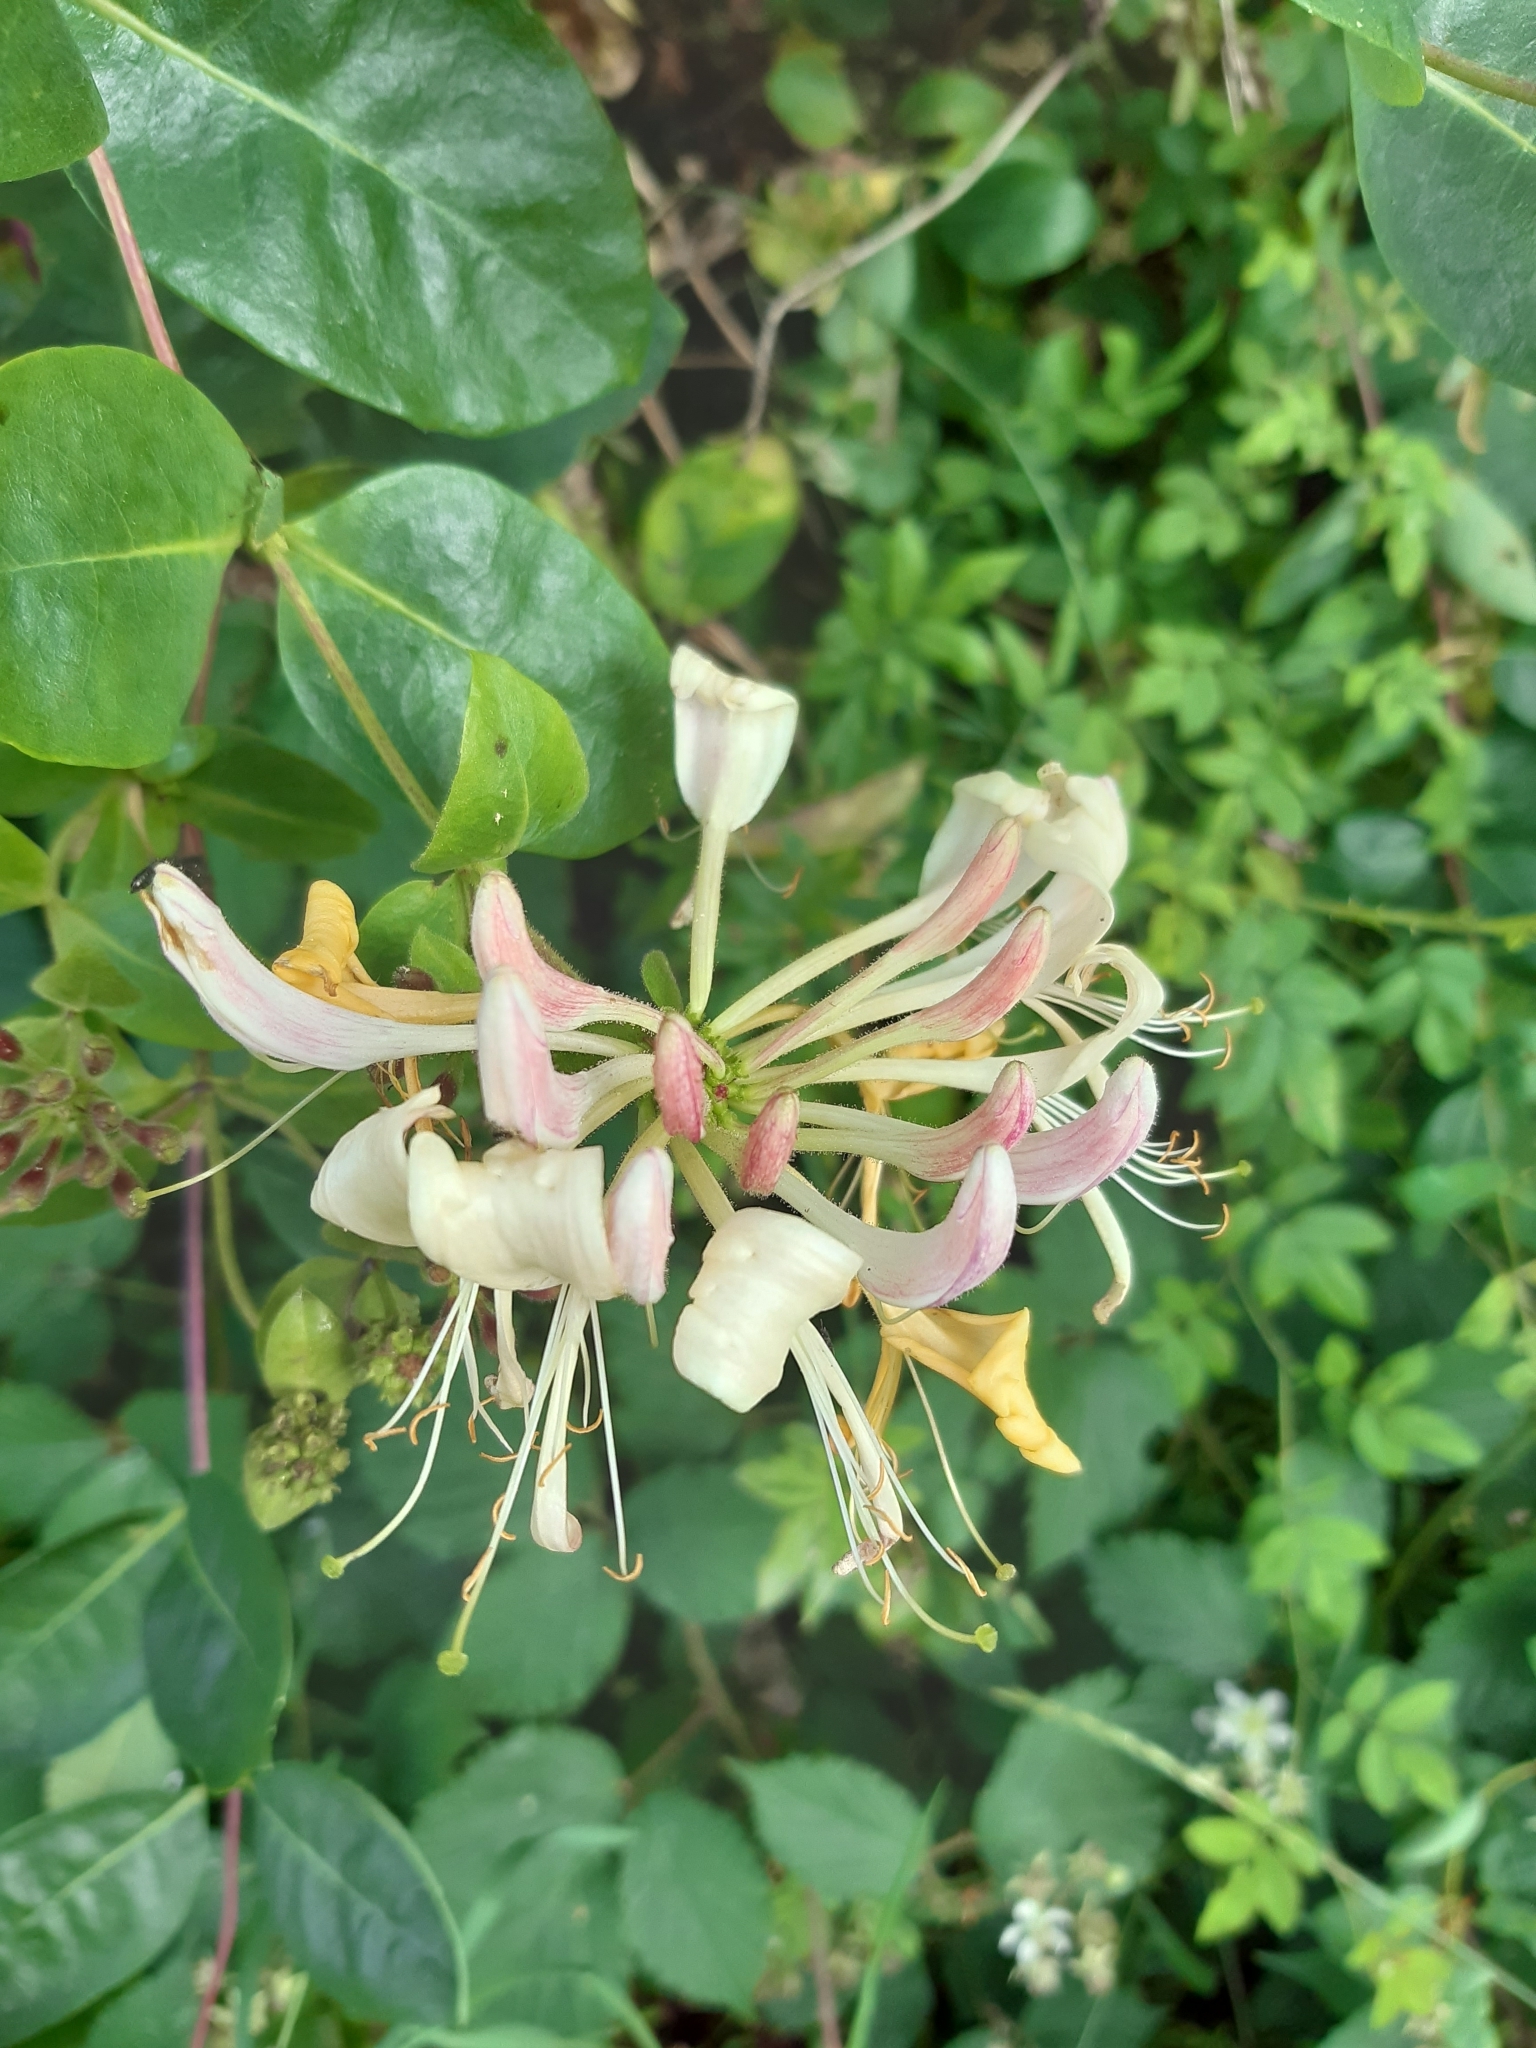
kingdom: Plantae
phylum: Tracheophyta
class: Magnoliopsida
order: Dipsacales
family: Caprifoliaceae
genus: Lonicera
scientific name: Lonicera periclymenum
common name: European honeysuckle
